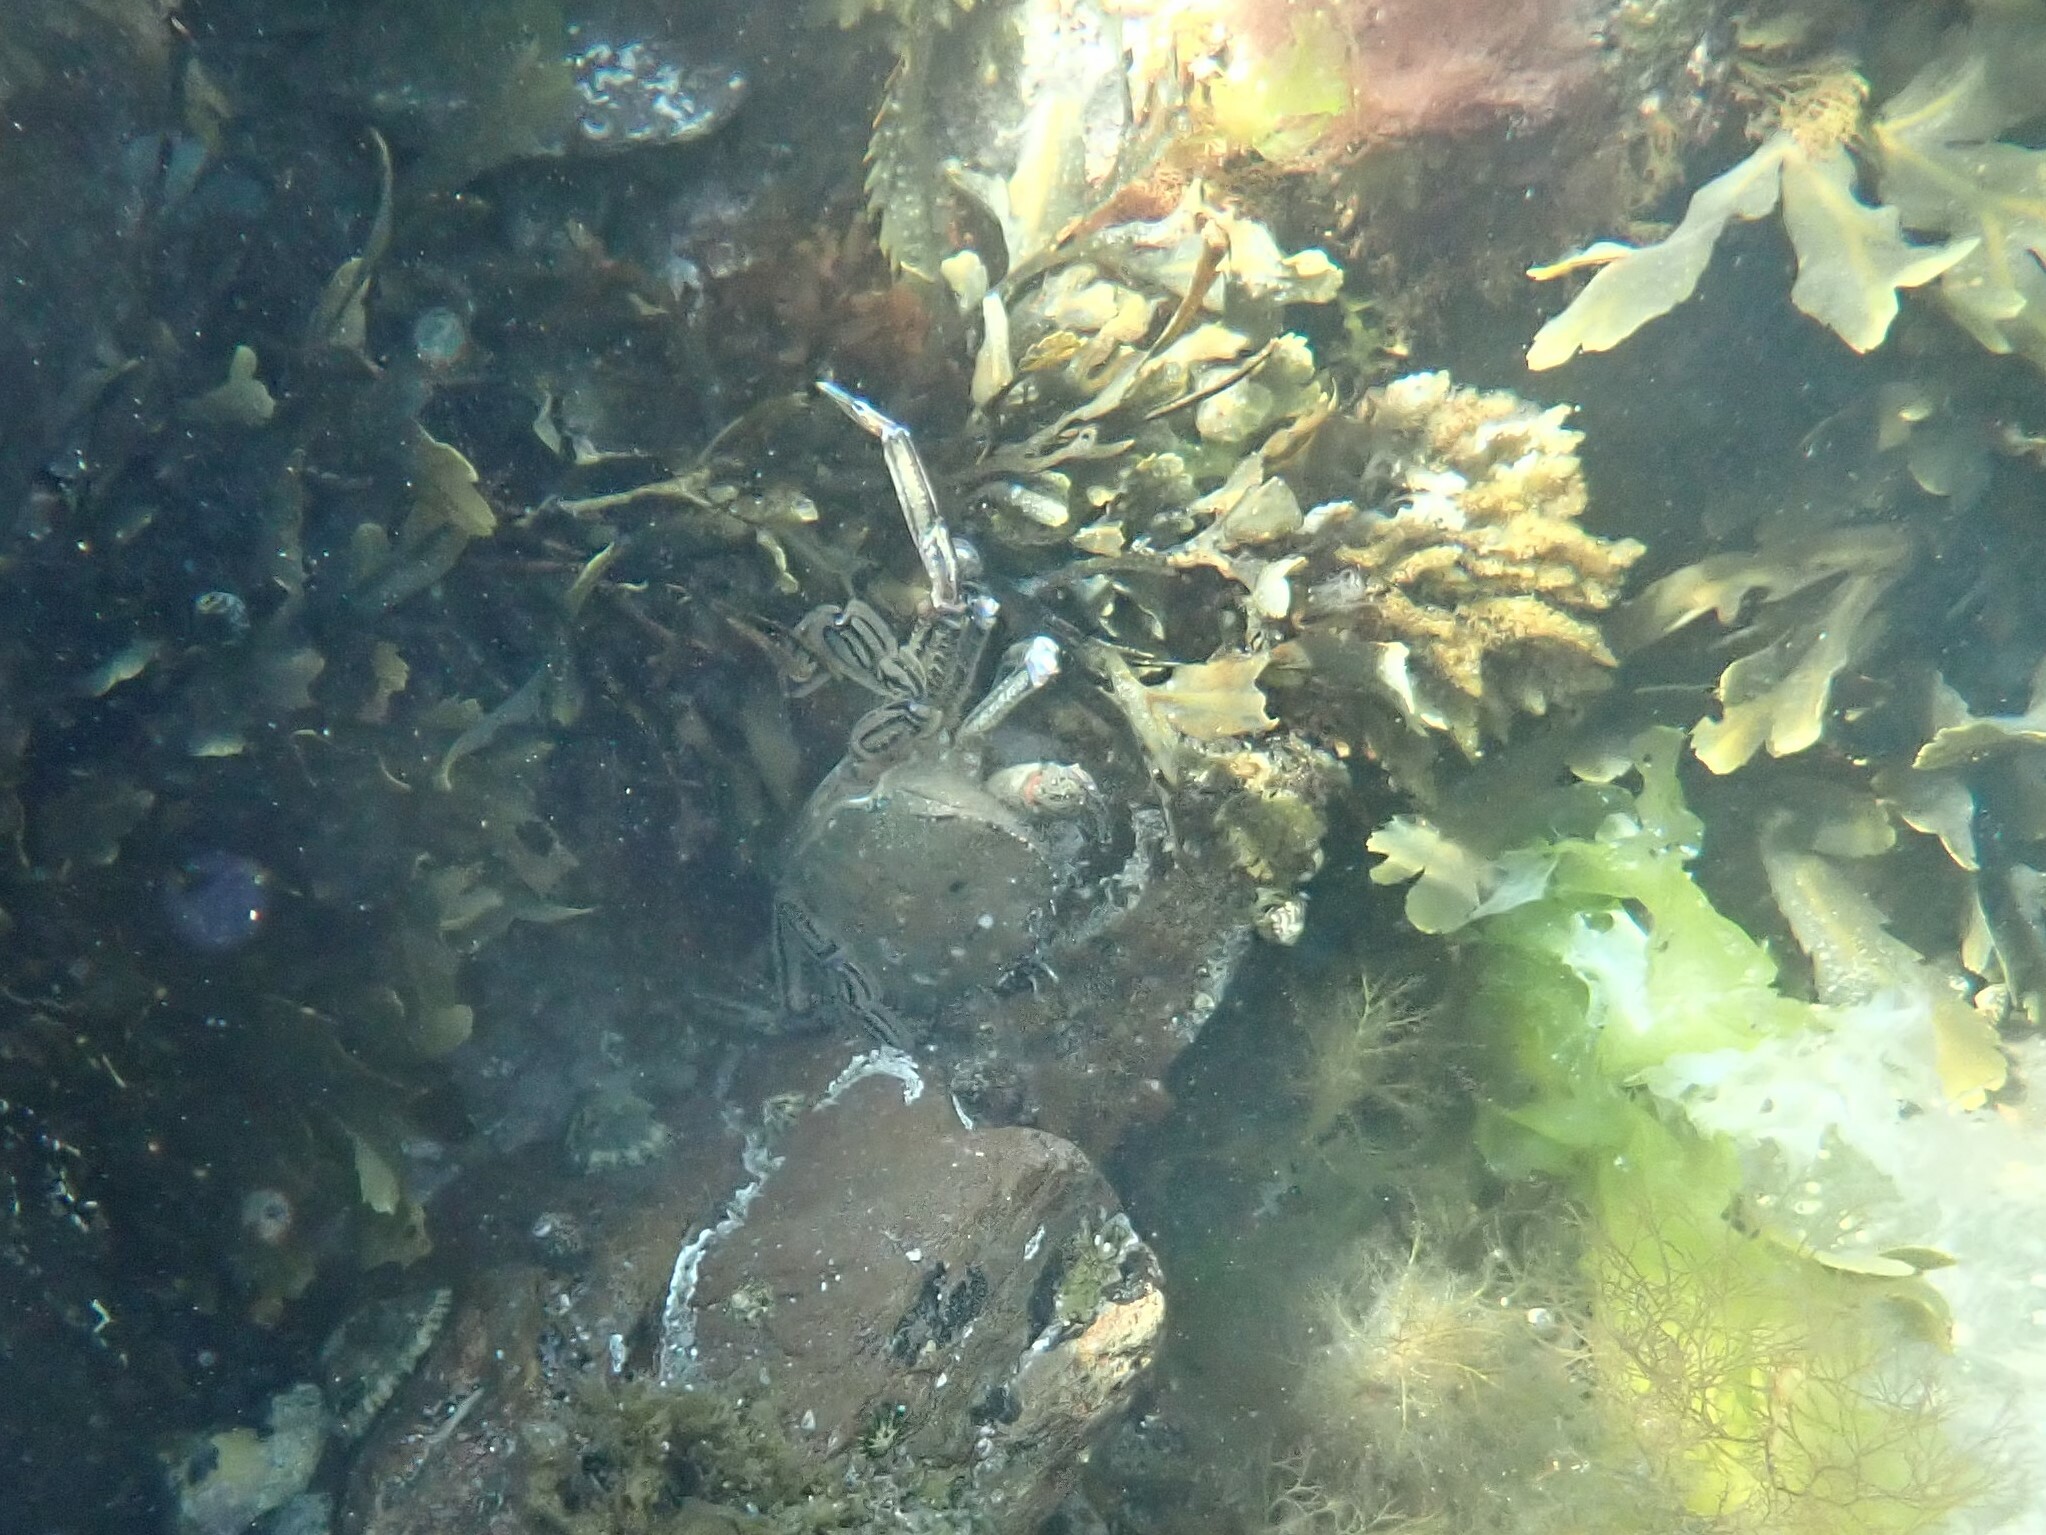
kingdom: Animalia
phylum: Arthropoda
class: Malacostraca
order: Decapoda
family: Polybiidae
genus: Necora
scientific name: Necora puber
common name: Velvet swimming crab
